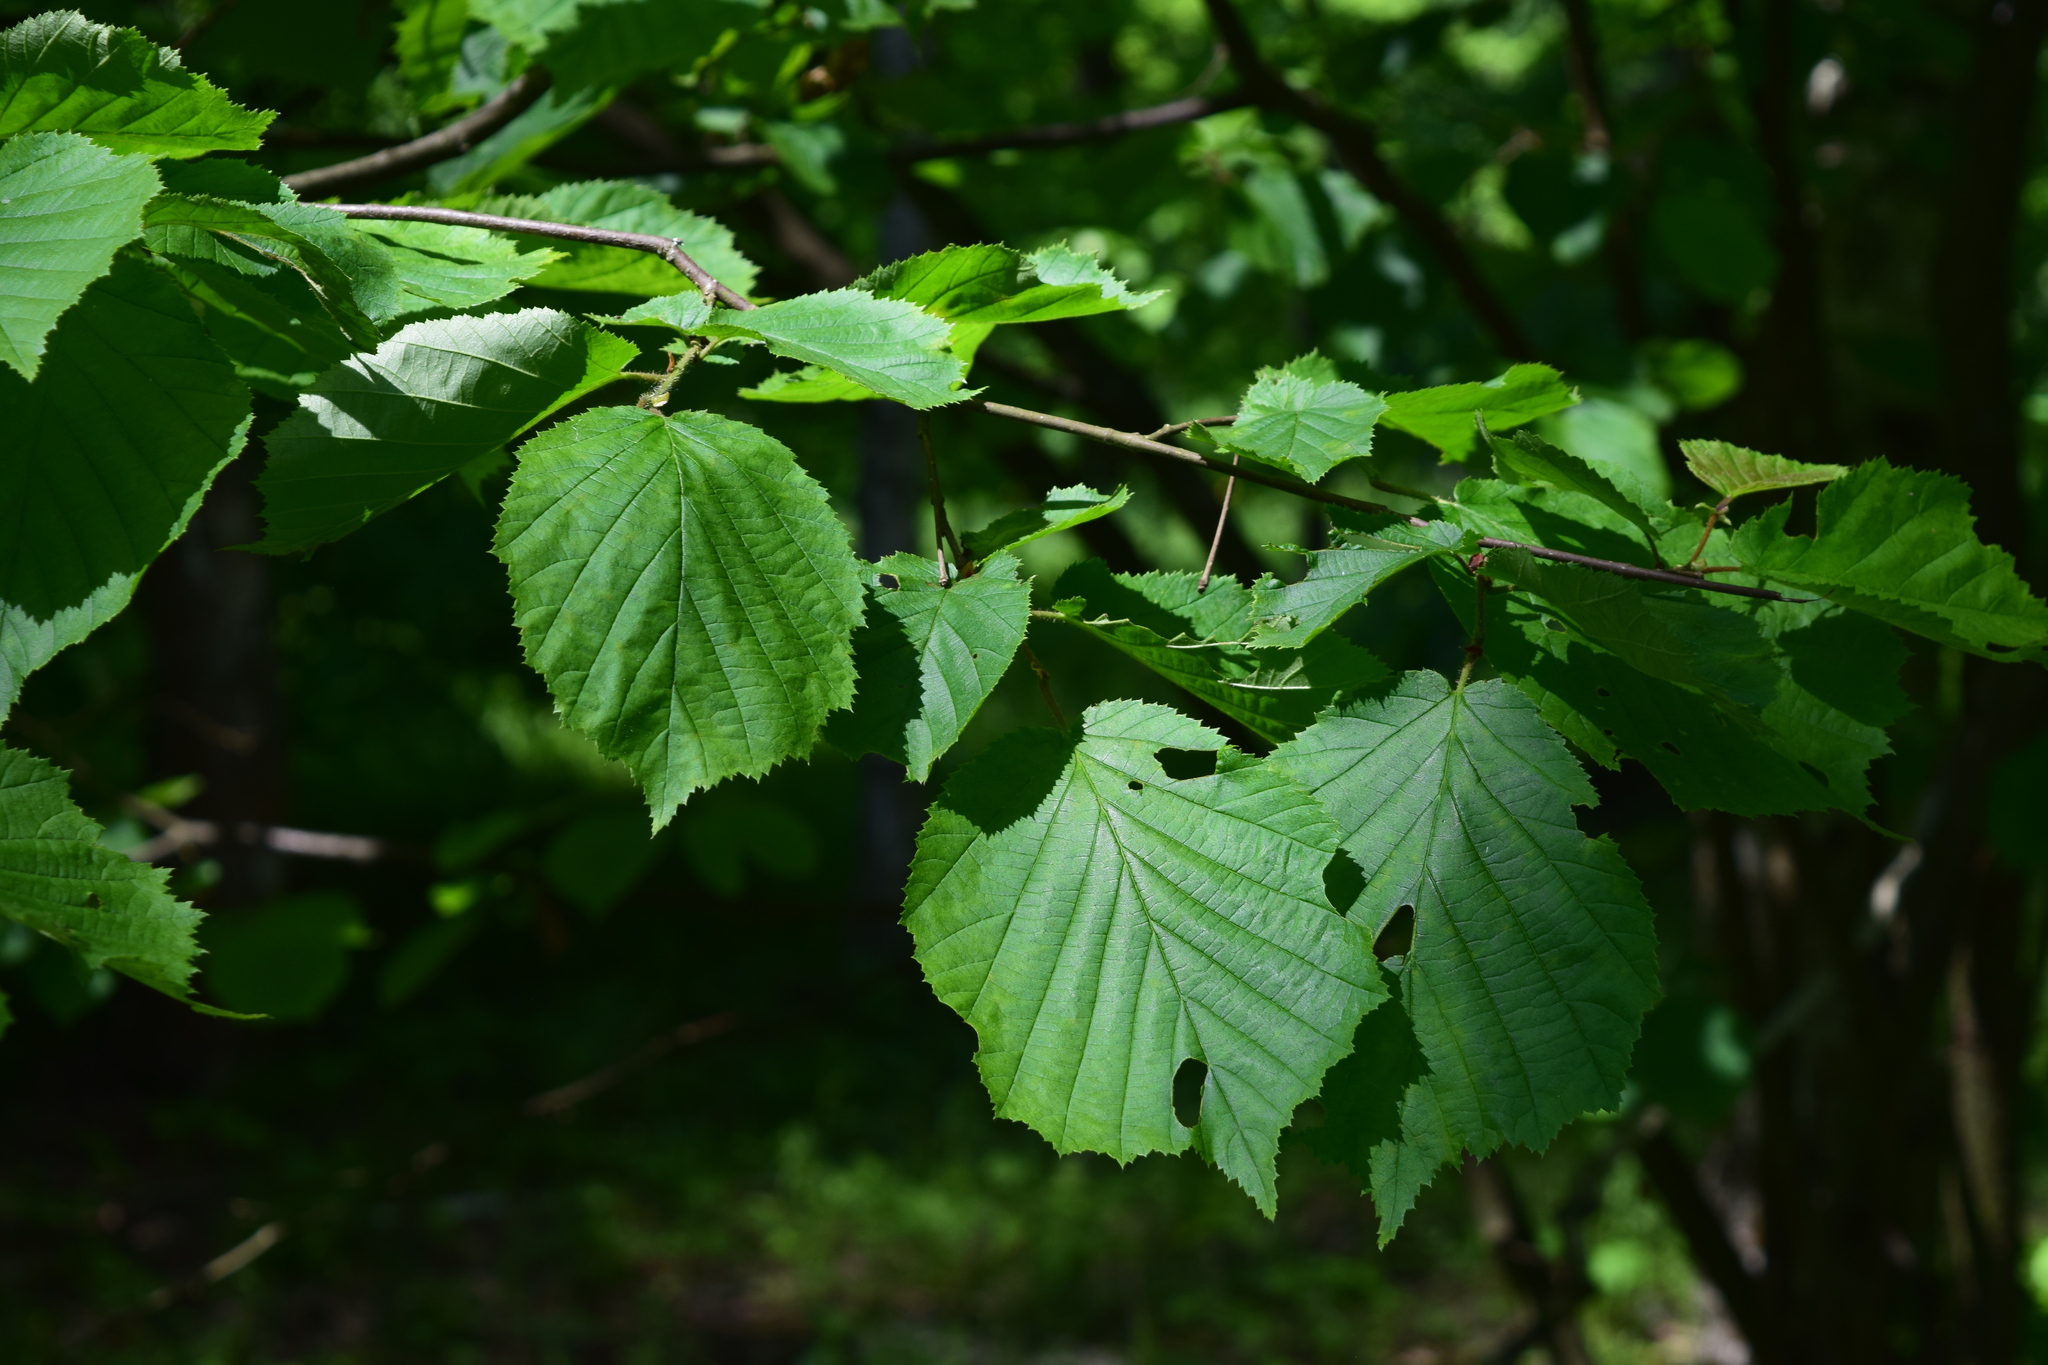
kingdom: Plantae
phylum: Tracheophyta
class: Magnoliopsida
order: Fagales
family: Betulaceae
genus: Corylus
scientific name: Corylus avellana
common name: European hazel
